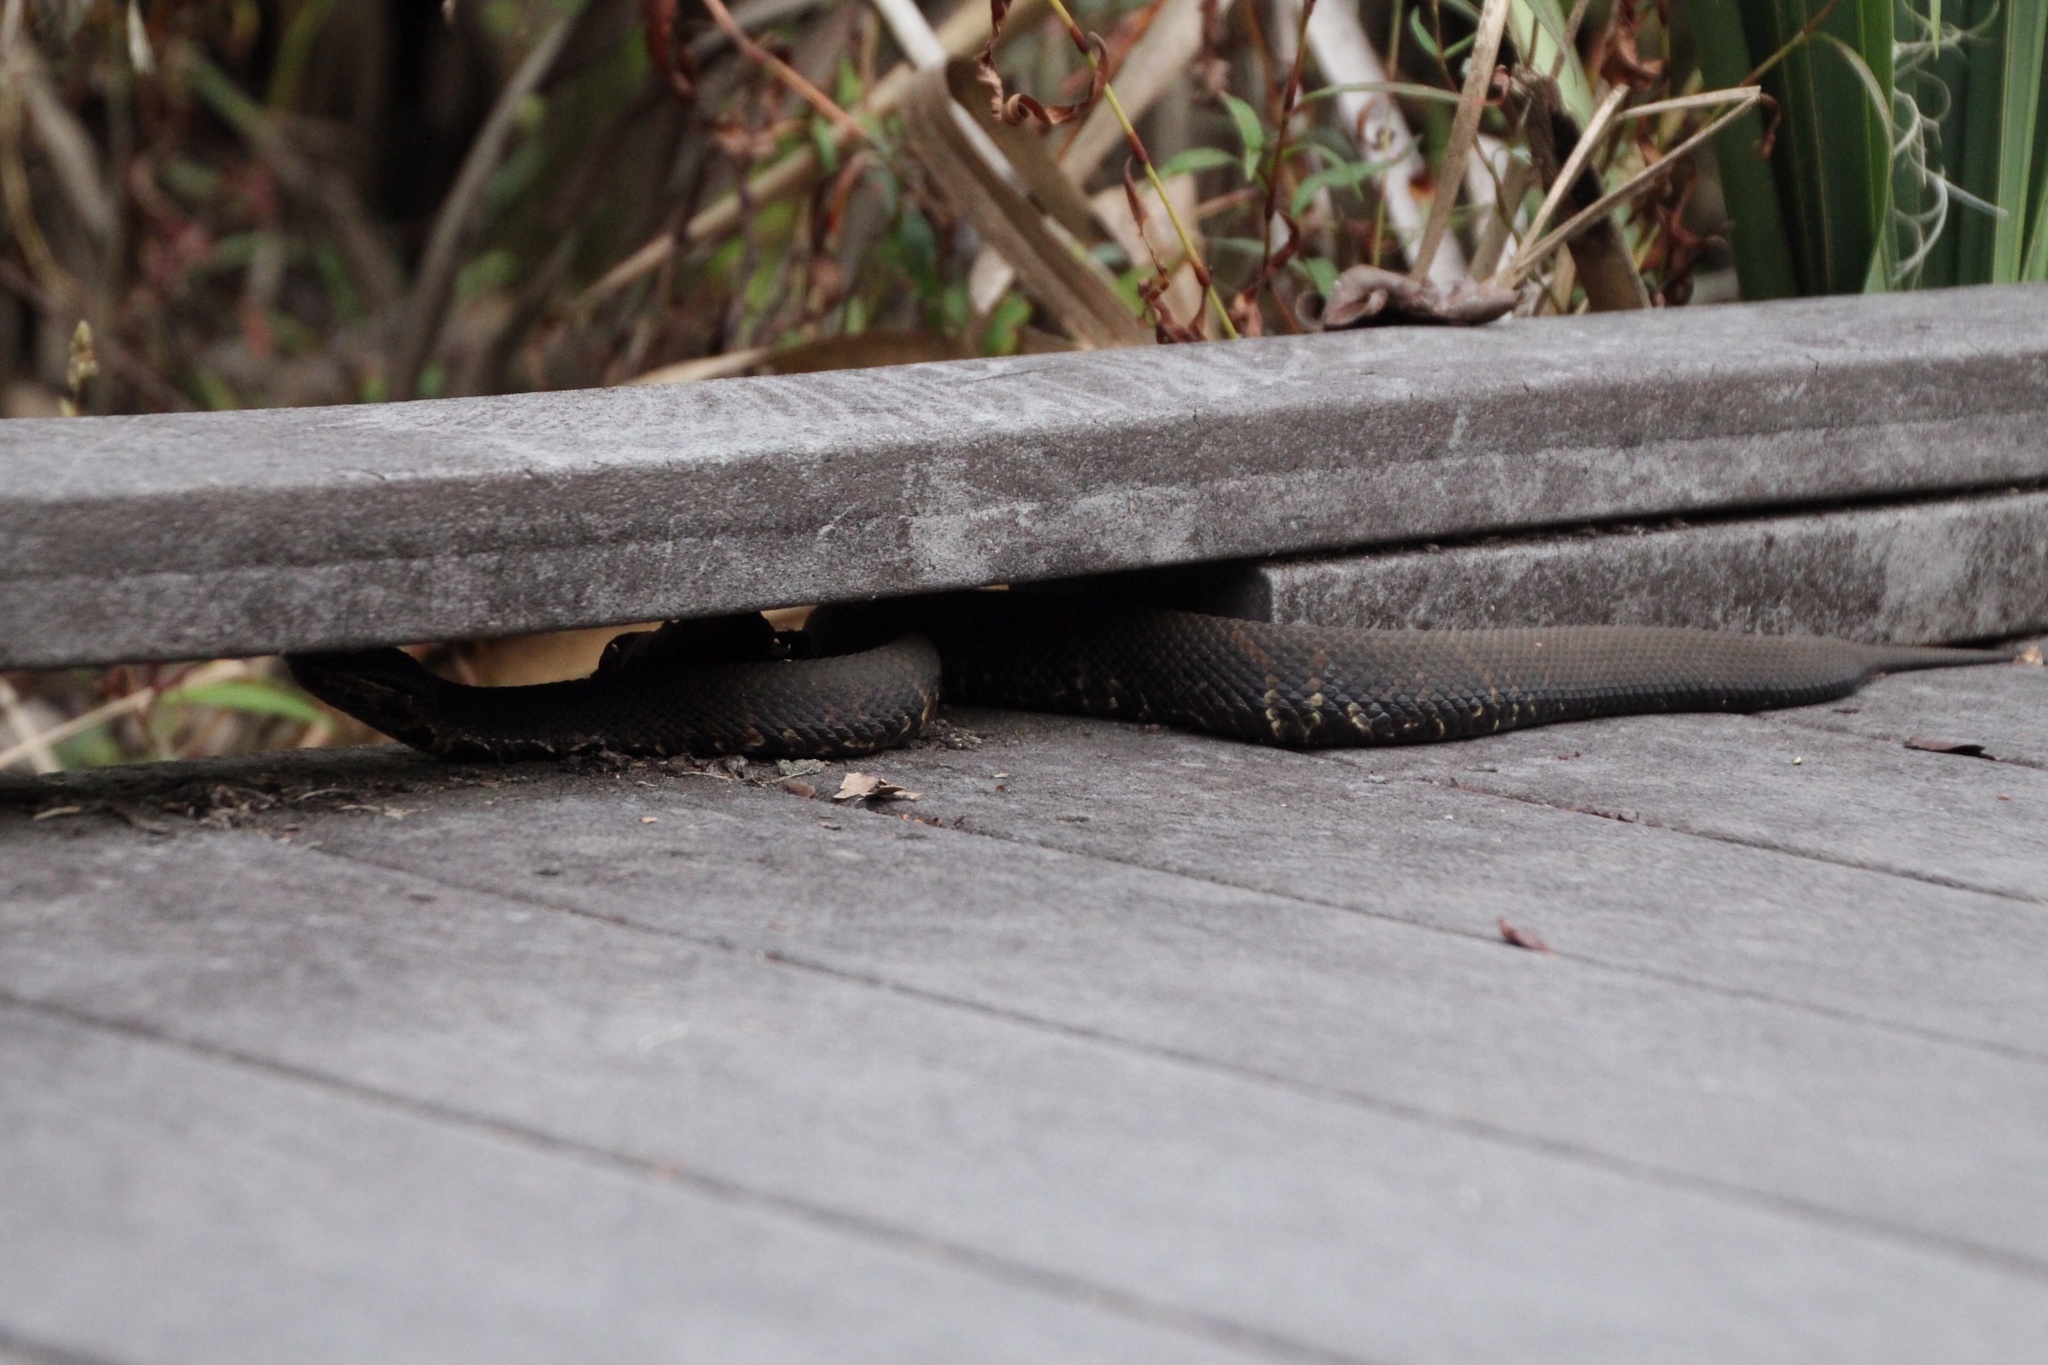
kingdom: Animalia
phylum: Chordata
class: Squamata
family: Viperidae
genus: Agkistrodon
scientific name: Agkistrodon piscivorus
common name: Cottonmouth
